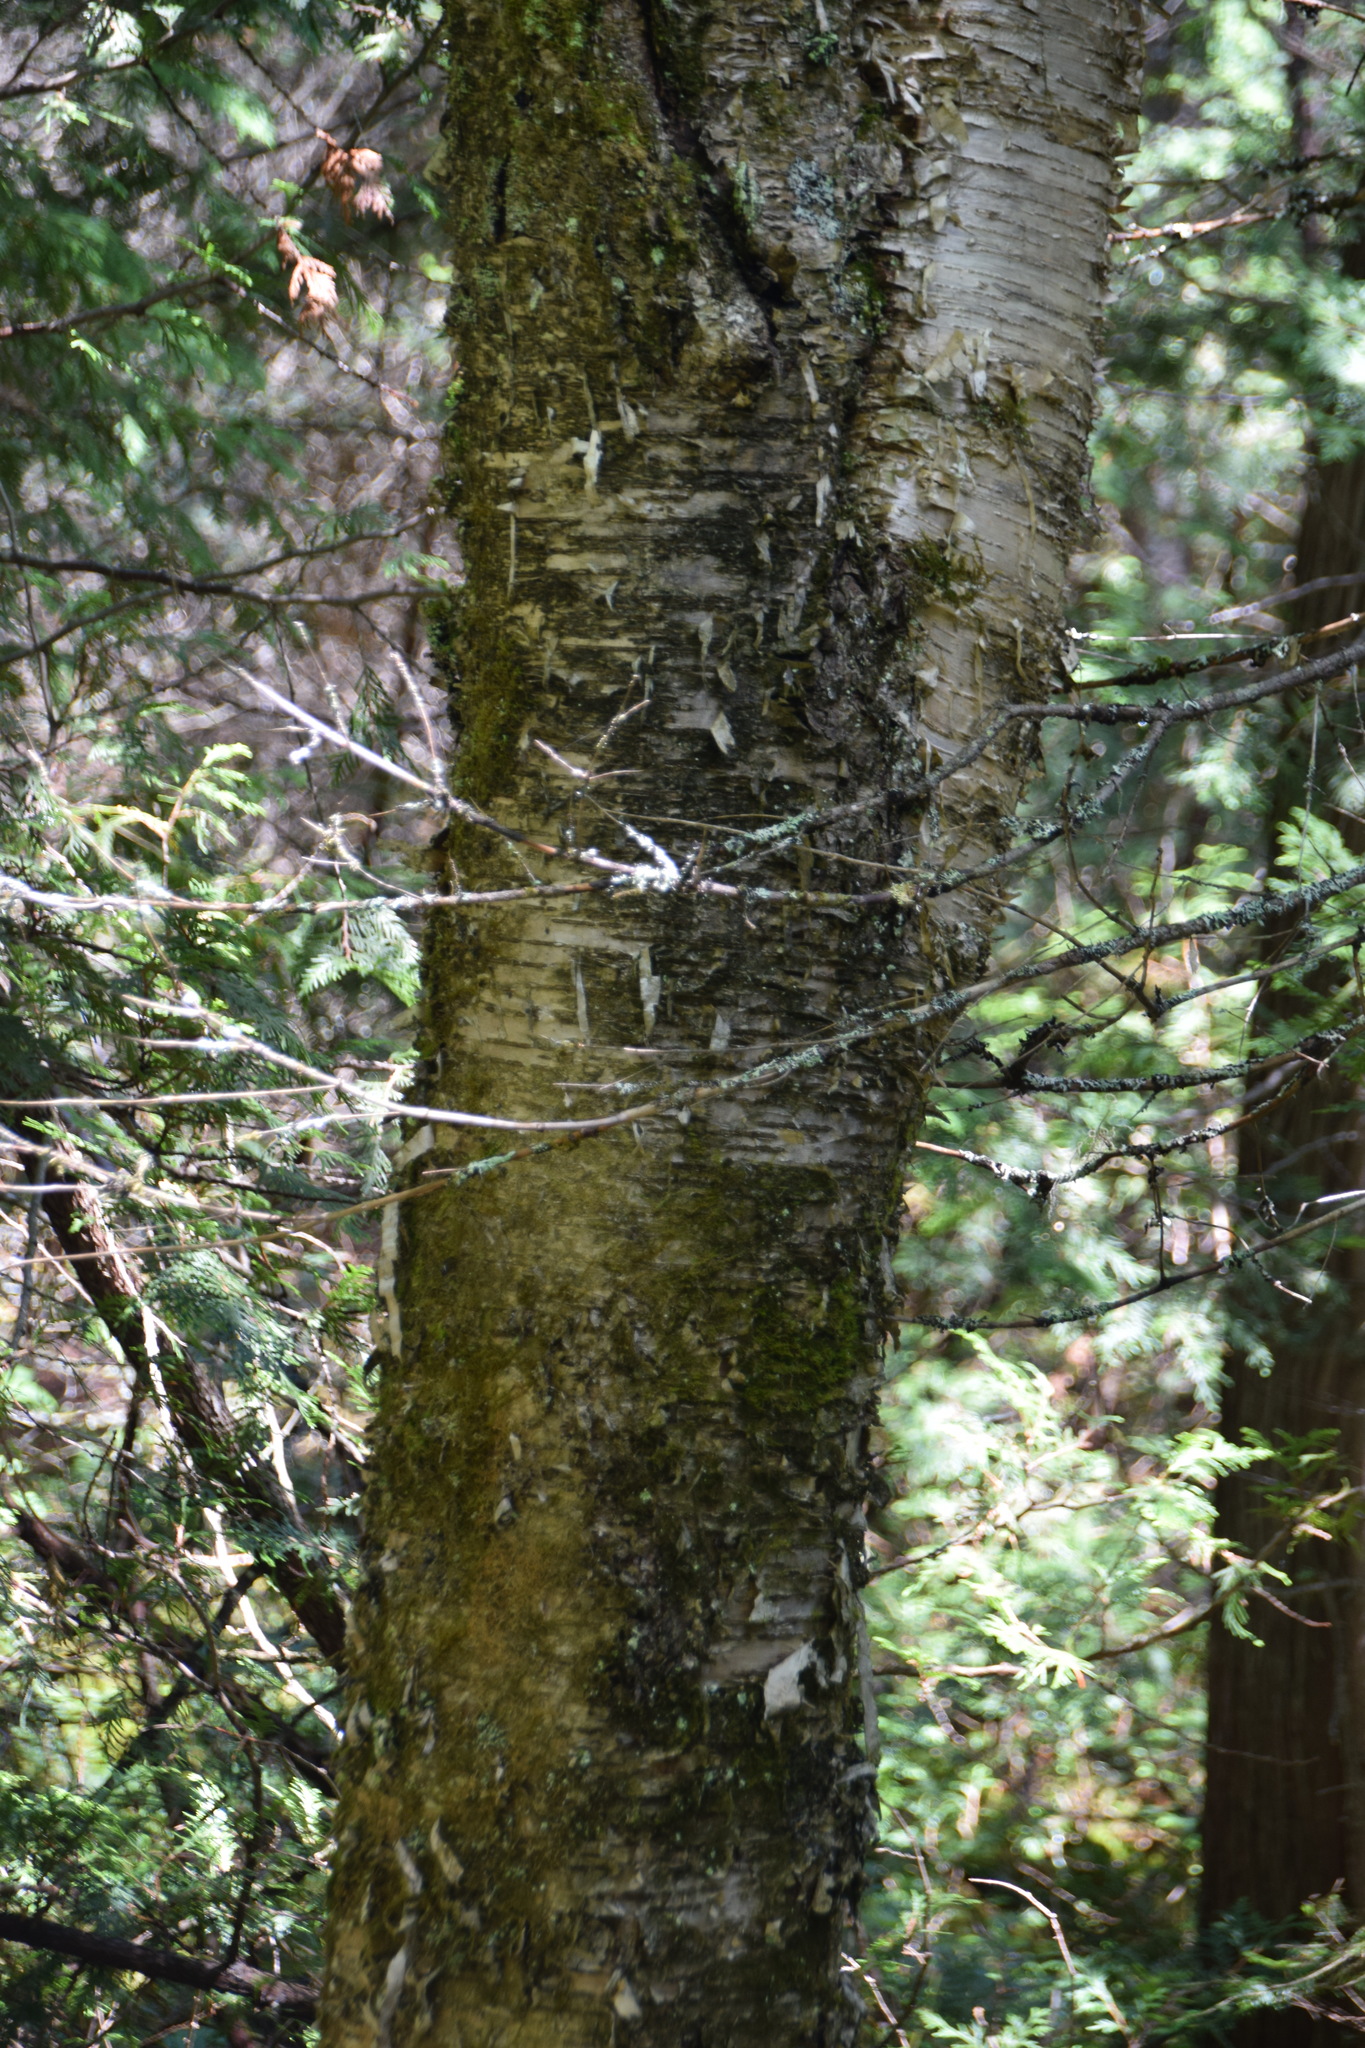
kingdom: Plantae
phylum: Tracheophyta
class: Magnoliopsida
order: Fagales
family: Betulaceae
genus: Betula
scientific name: Betula alleghaniensis
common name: Yellow birch
